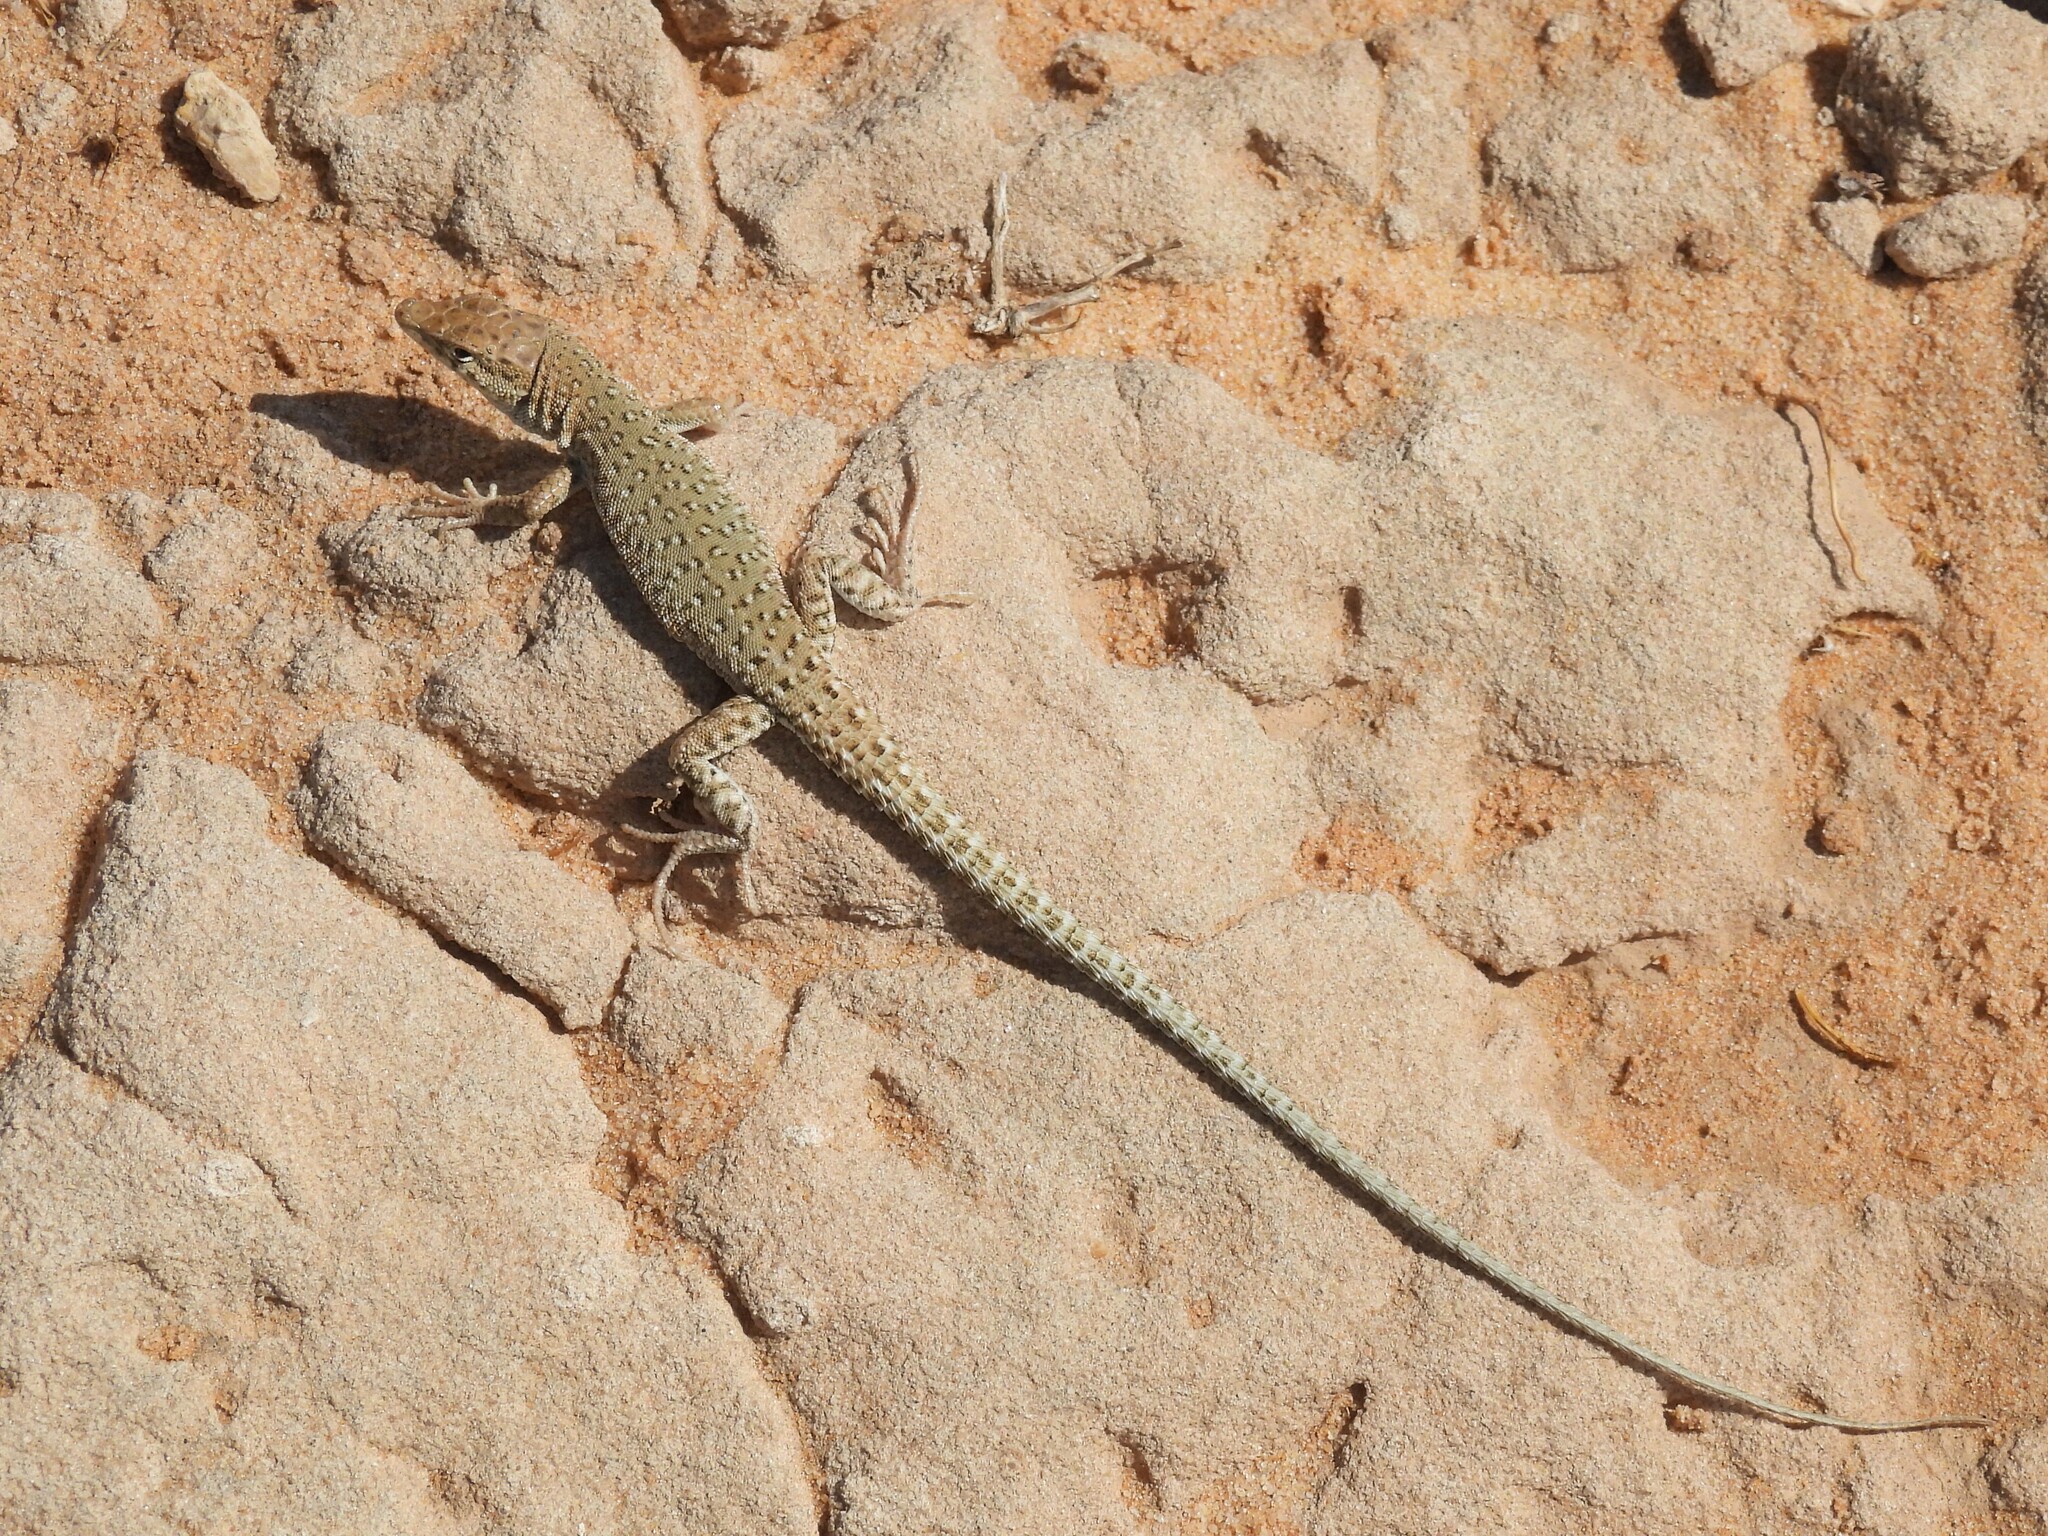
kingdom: Animalia
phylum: Chordata
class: Squamata
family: Lacertidae
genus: Mesalina
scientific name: Mesalina guttulata
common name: Desert lacerta
